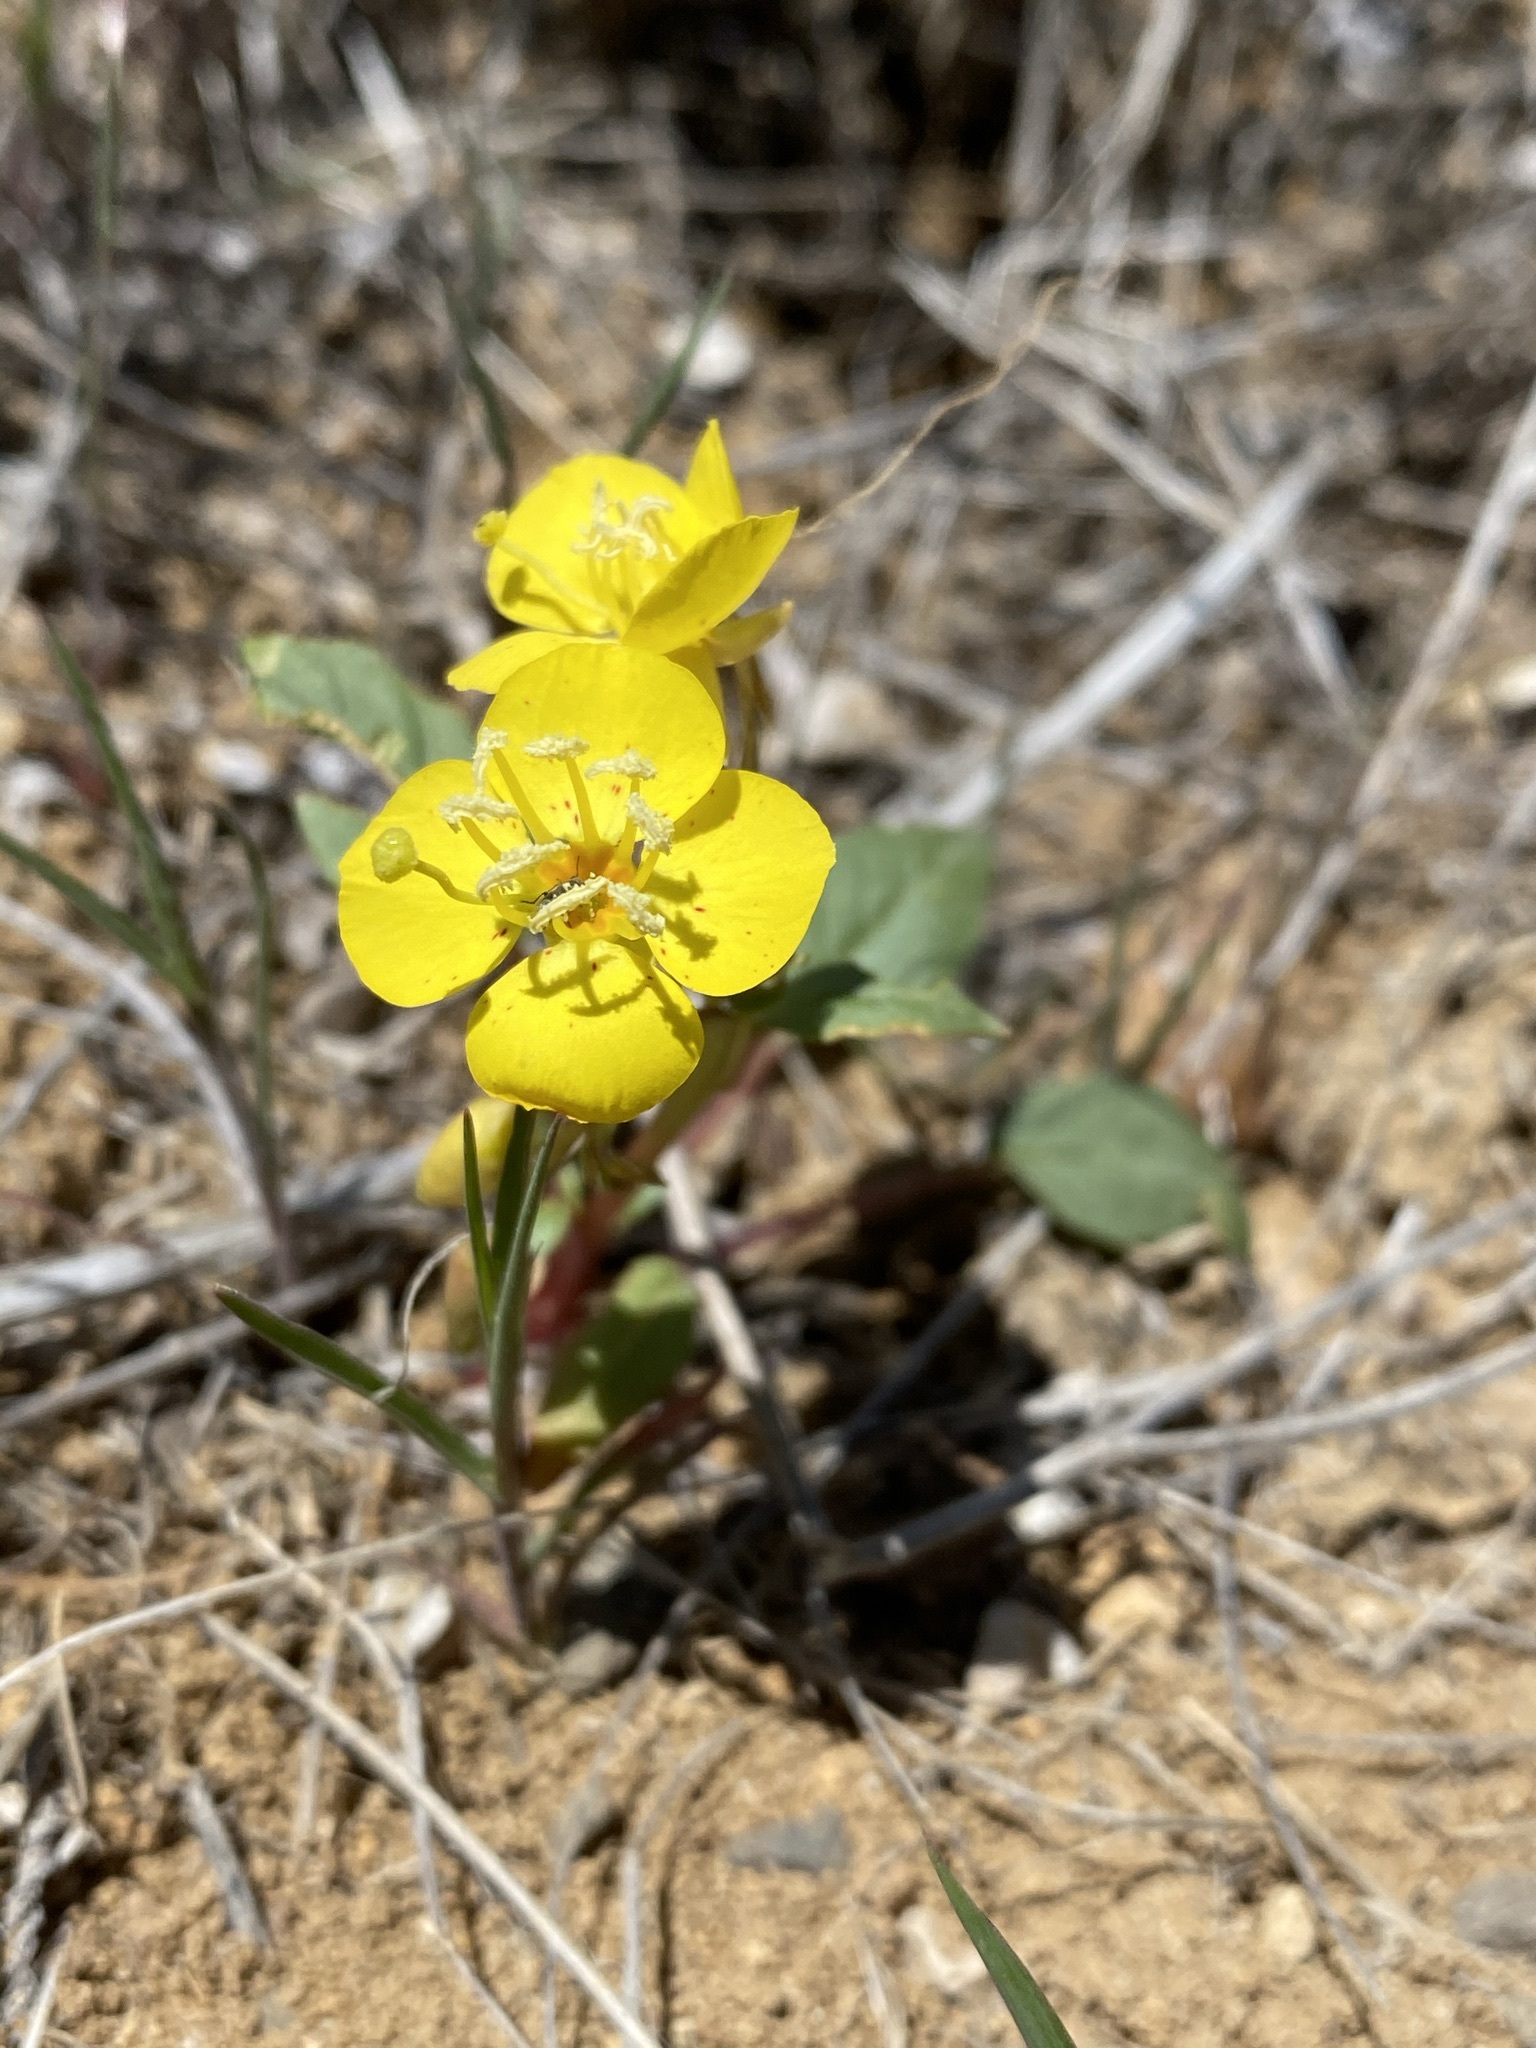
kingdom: Plantae
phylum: Tracheophyta
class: Magnoliopsida
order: Myrtales
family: Onagraceae
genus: Chylismia
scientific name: Chylismia claviformis
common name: Browneyes
